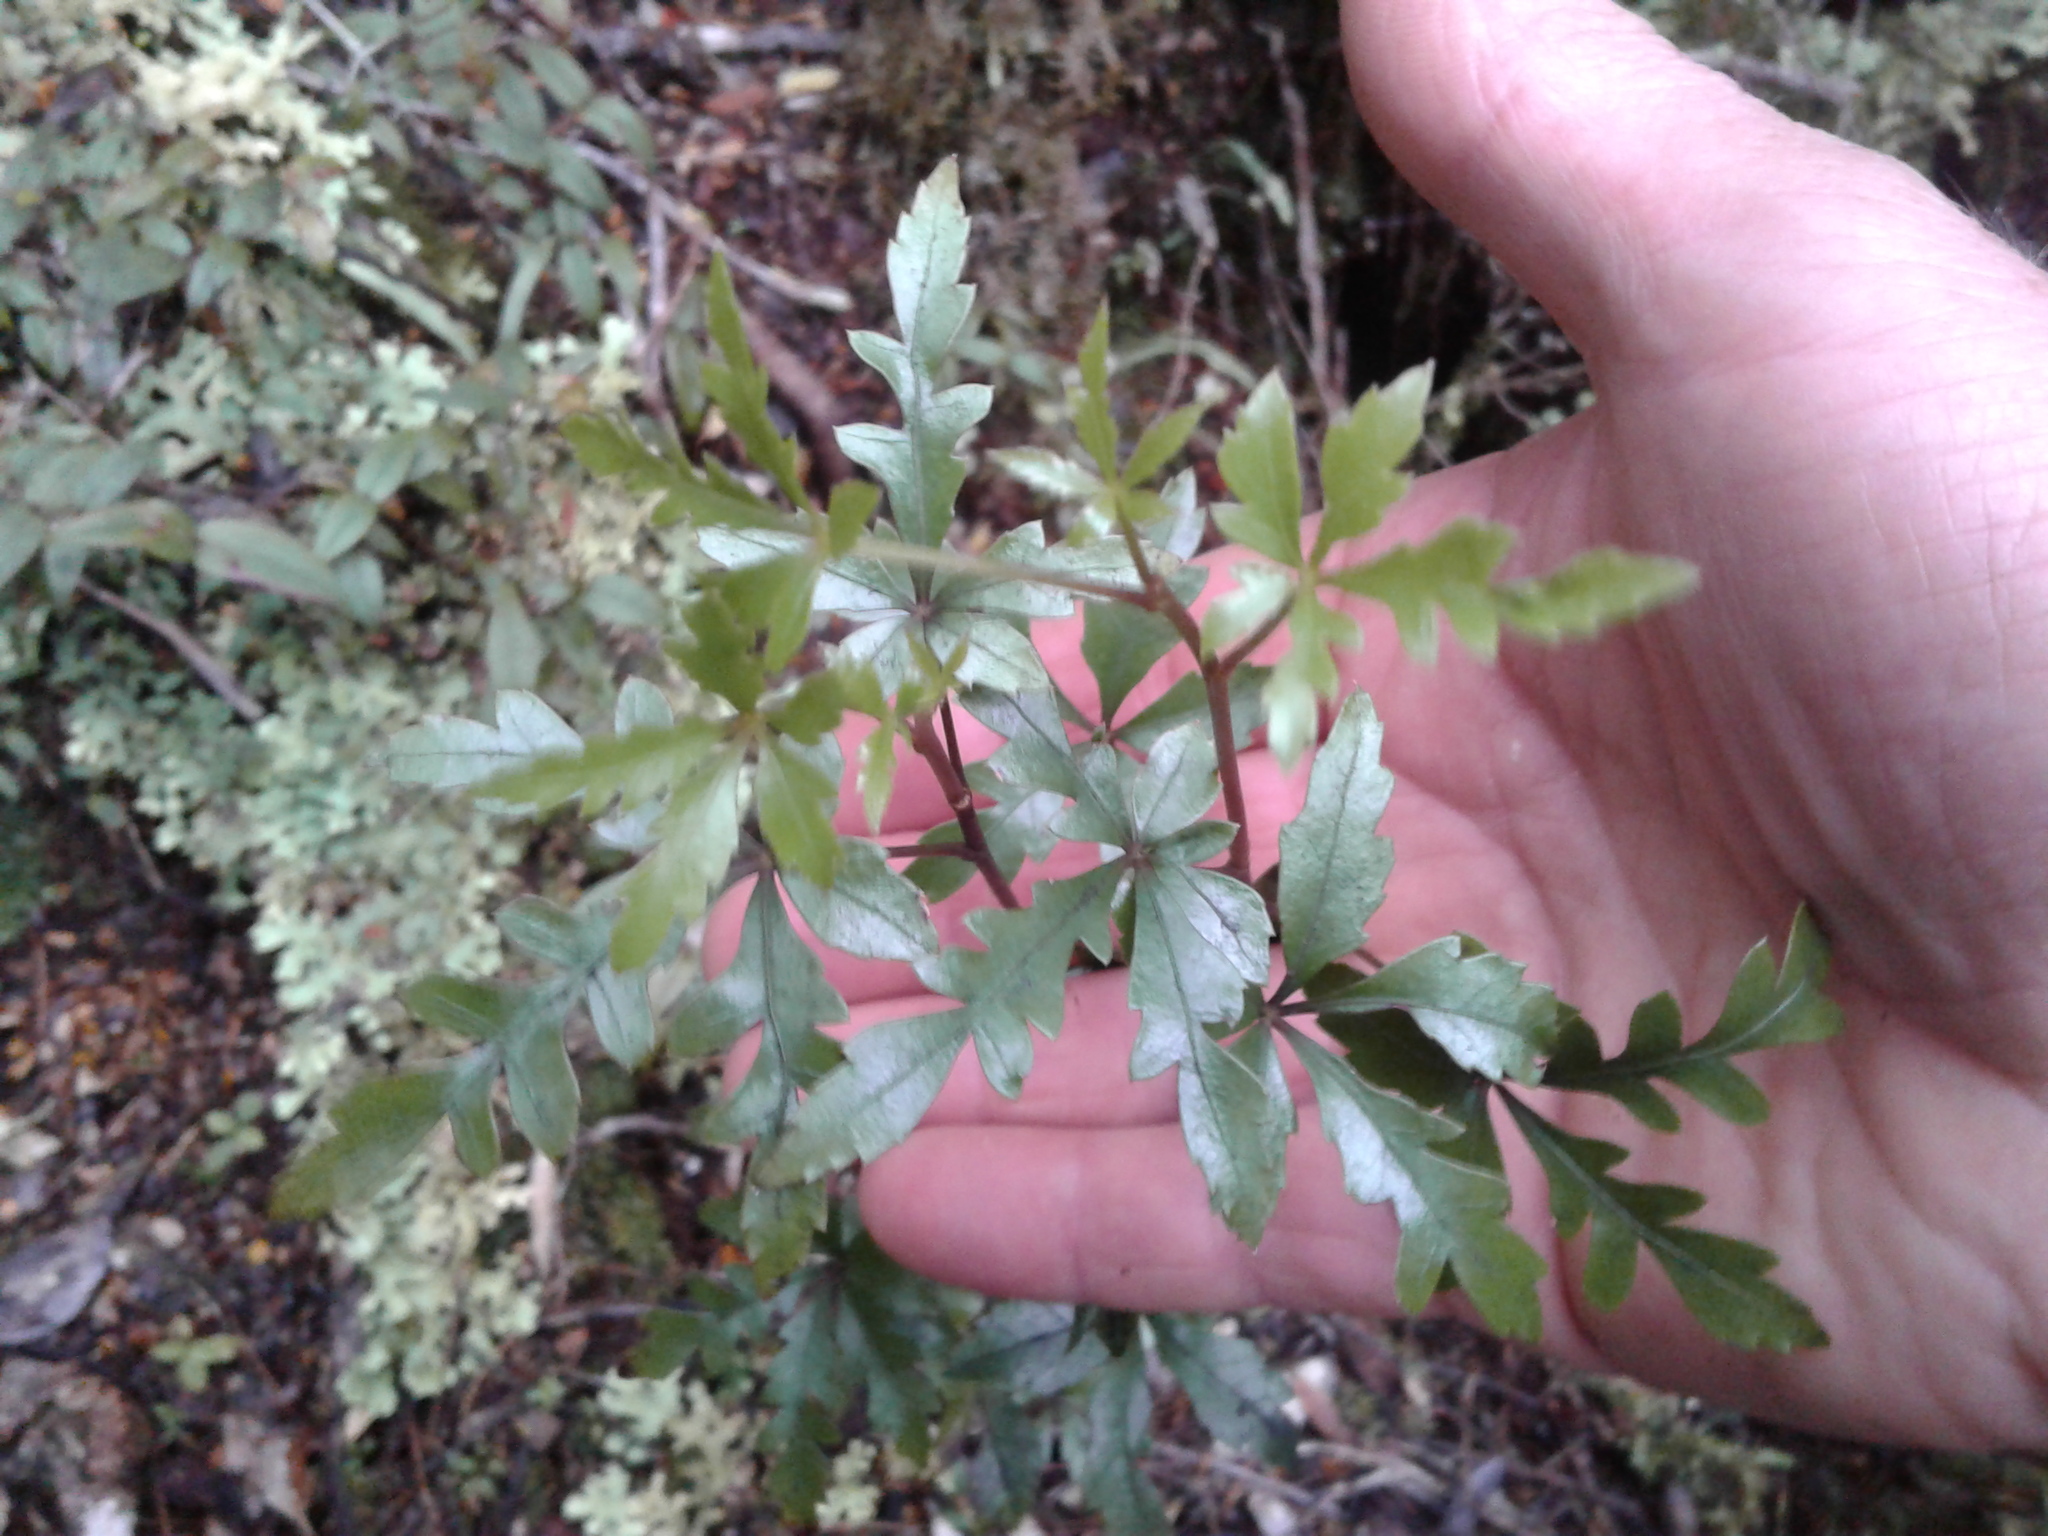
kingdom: Plantae
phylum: Tracheophyta
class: Magnoliopsida
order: Apiales
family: Araliaceae
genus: Raukaua
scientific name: Raukaua simplex
